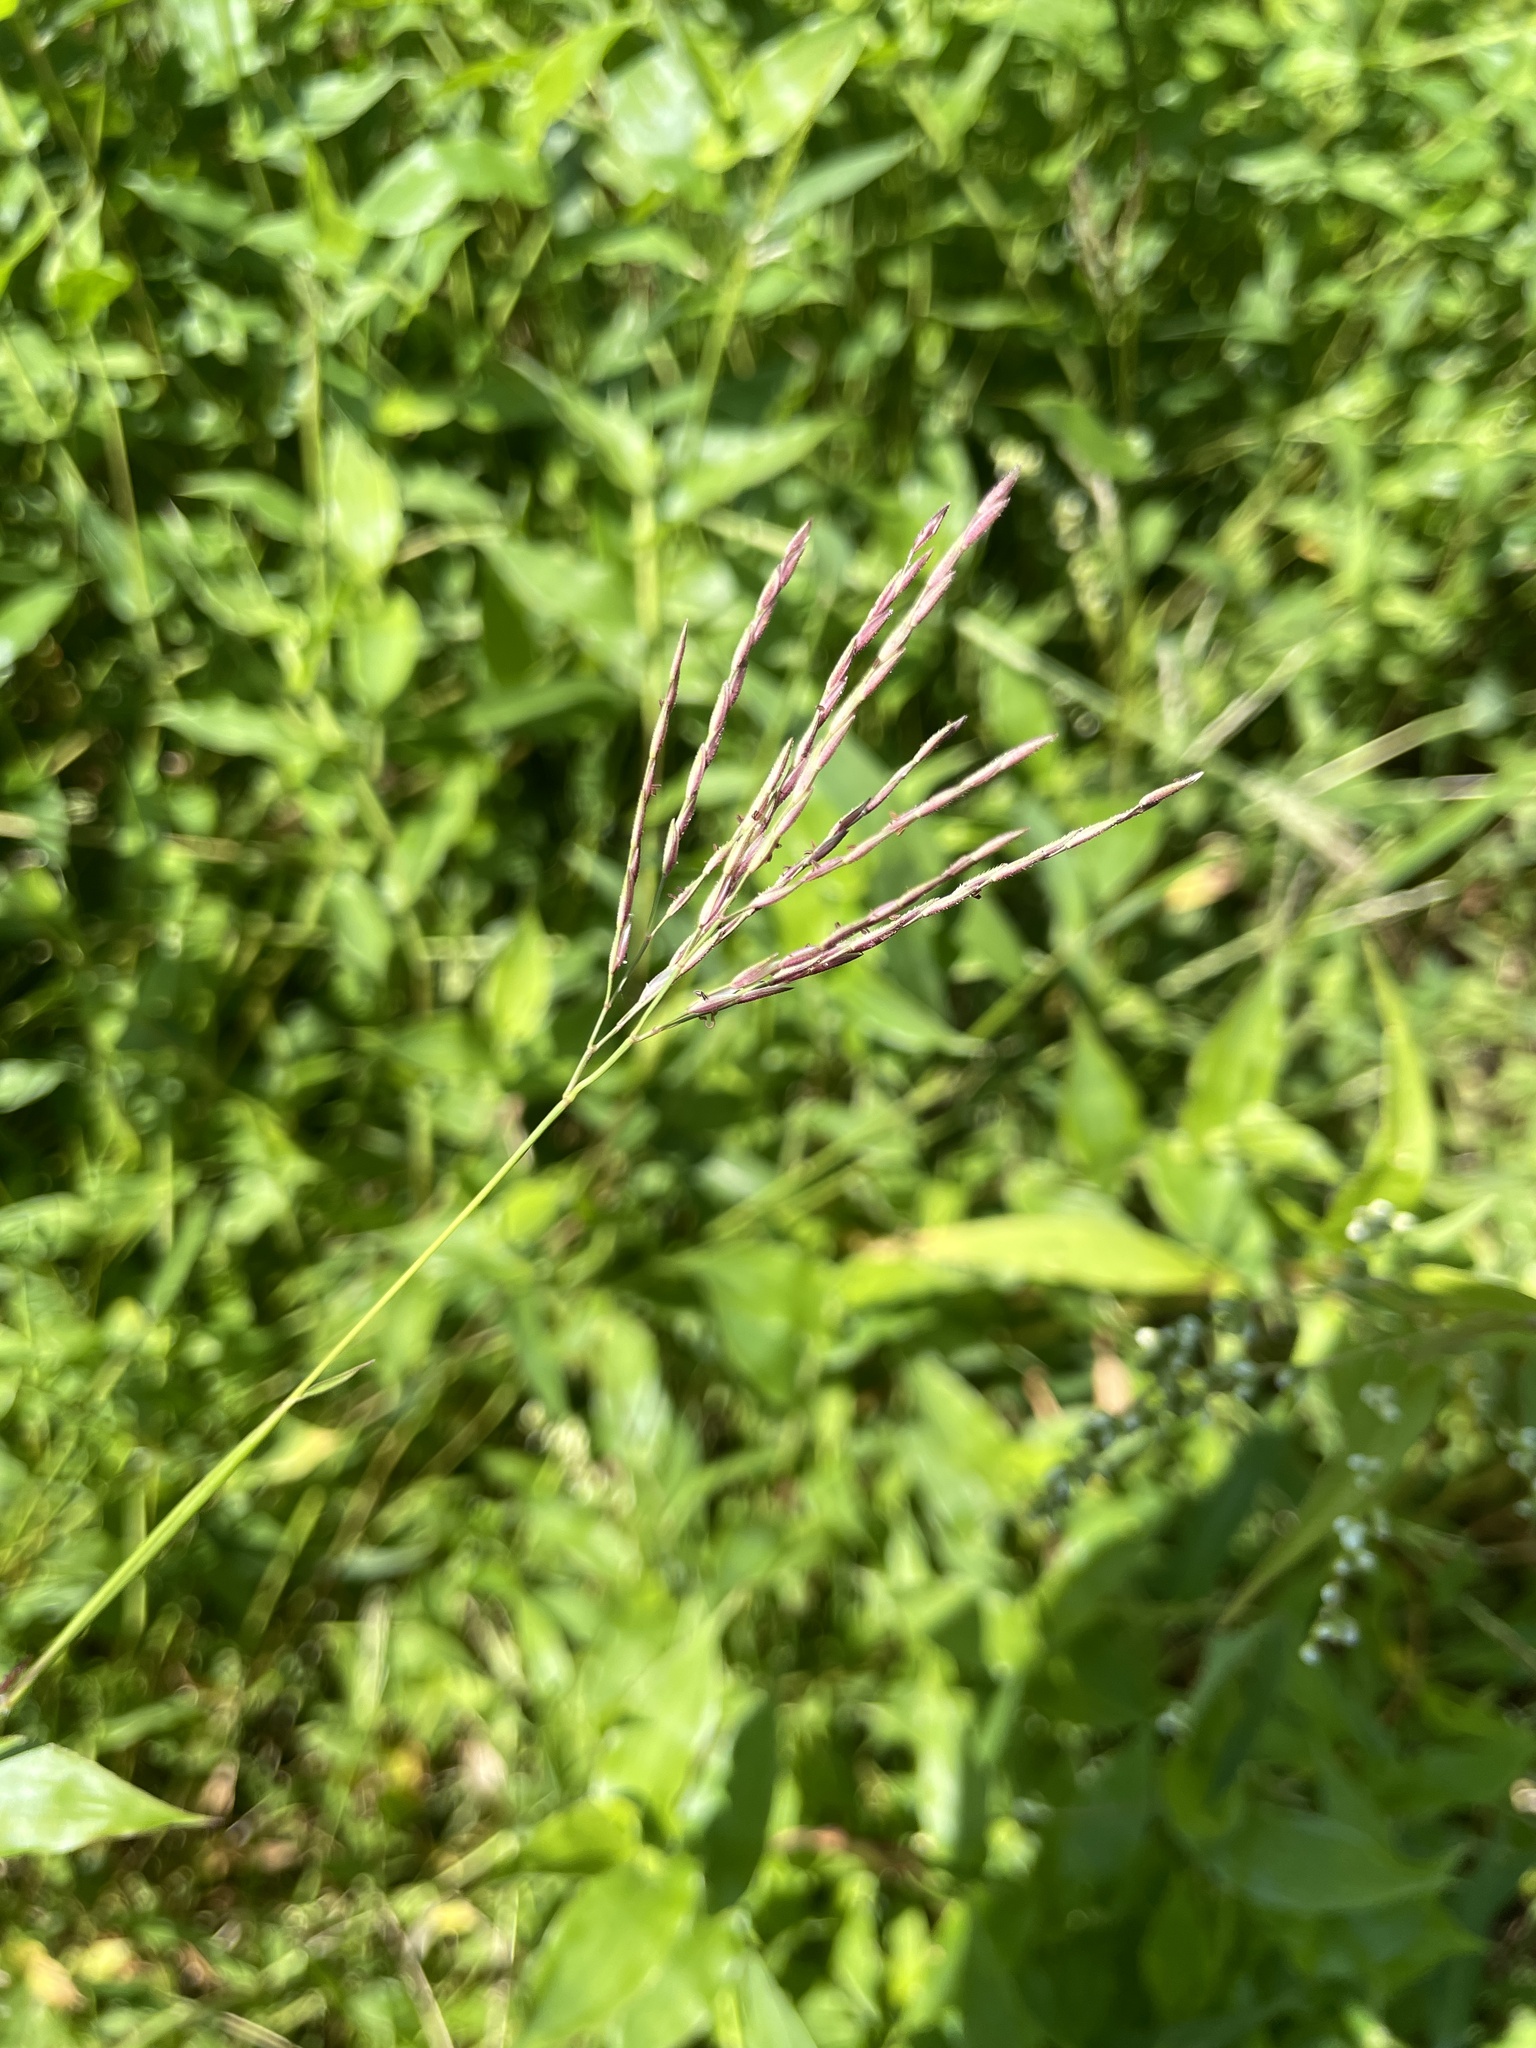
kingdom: Plantae
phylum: Tracheophyta
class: Liliopsida
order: Poales
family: Poaceae
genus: Arthraxon
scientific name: Arthraxon hispidus
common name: Small carpgrass
